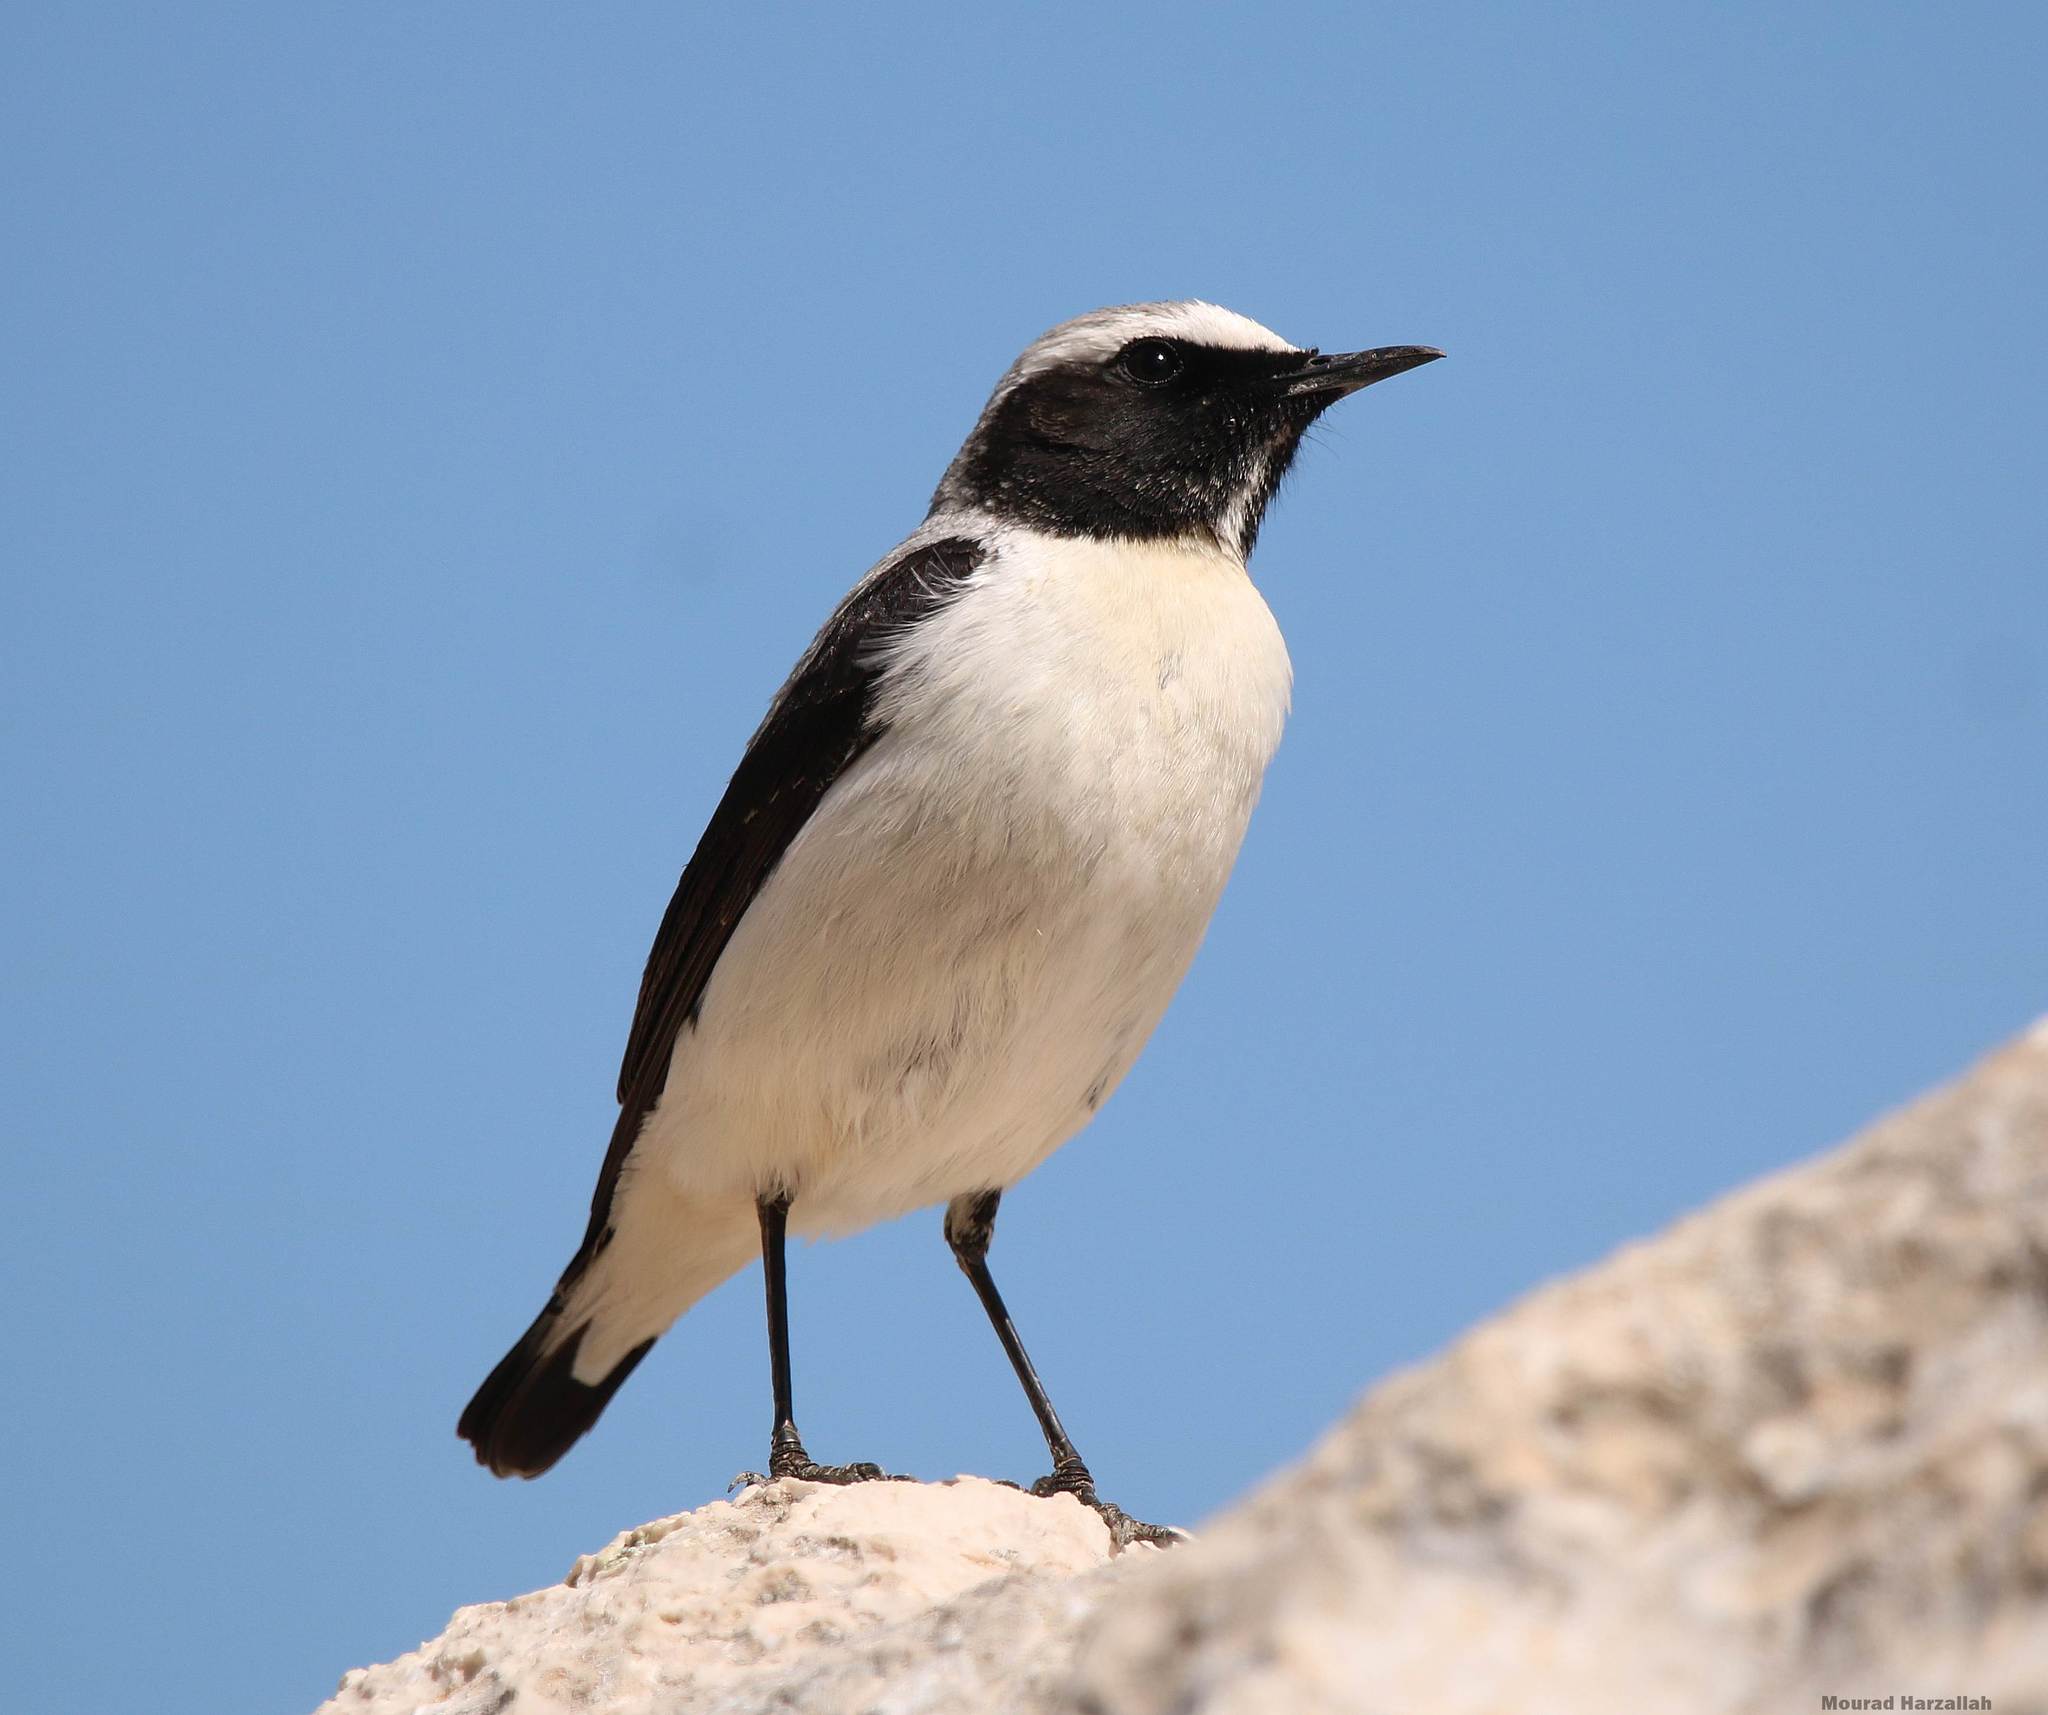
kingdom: Animalia
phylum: Chordata
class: Aves
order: Passeriformes
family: Muscicapidae
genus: Oenanthe
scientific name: Oenanthe oenanthe
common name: Northern wheatear
